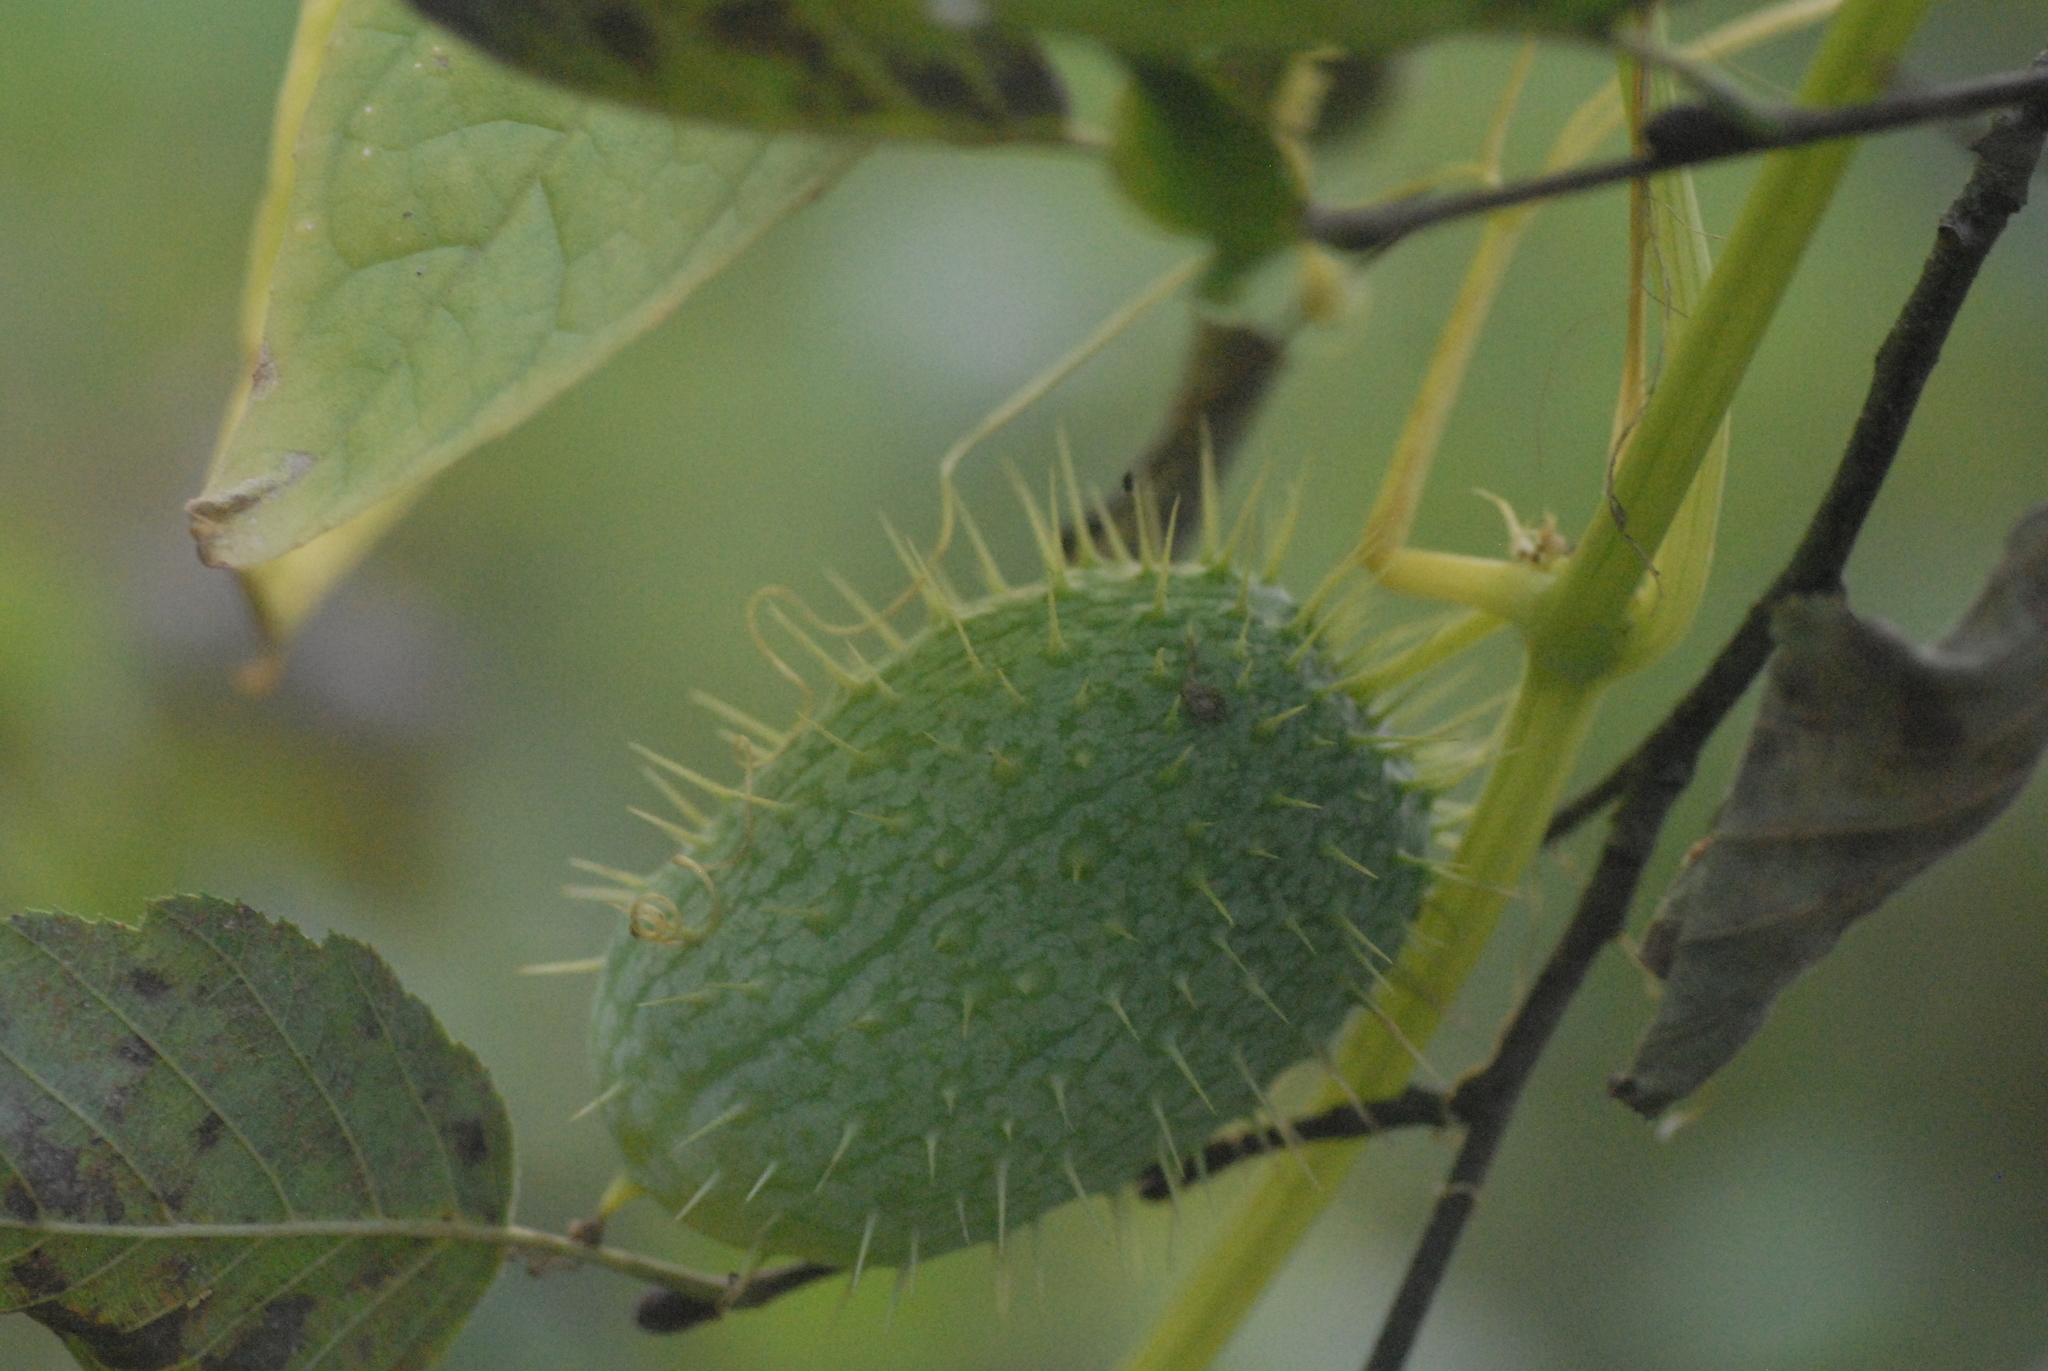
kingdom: Plantae
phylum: Tracheophyta
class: Magnoliopsida
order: Cucurbitales
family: Cucurbitaceae
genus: Echinocystis
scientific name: Echinocystis lobata
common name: Wild cucumber
